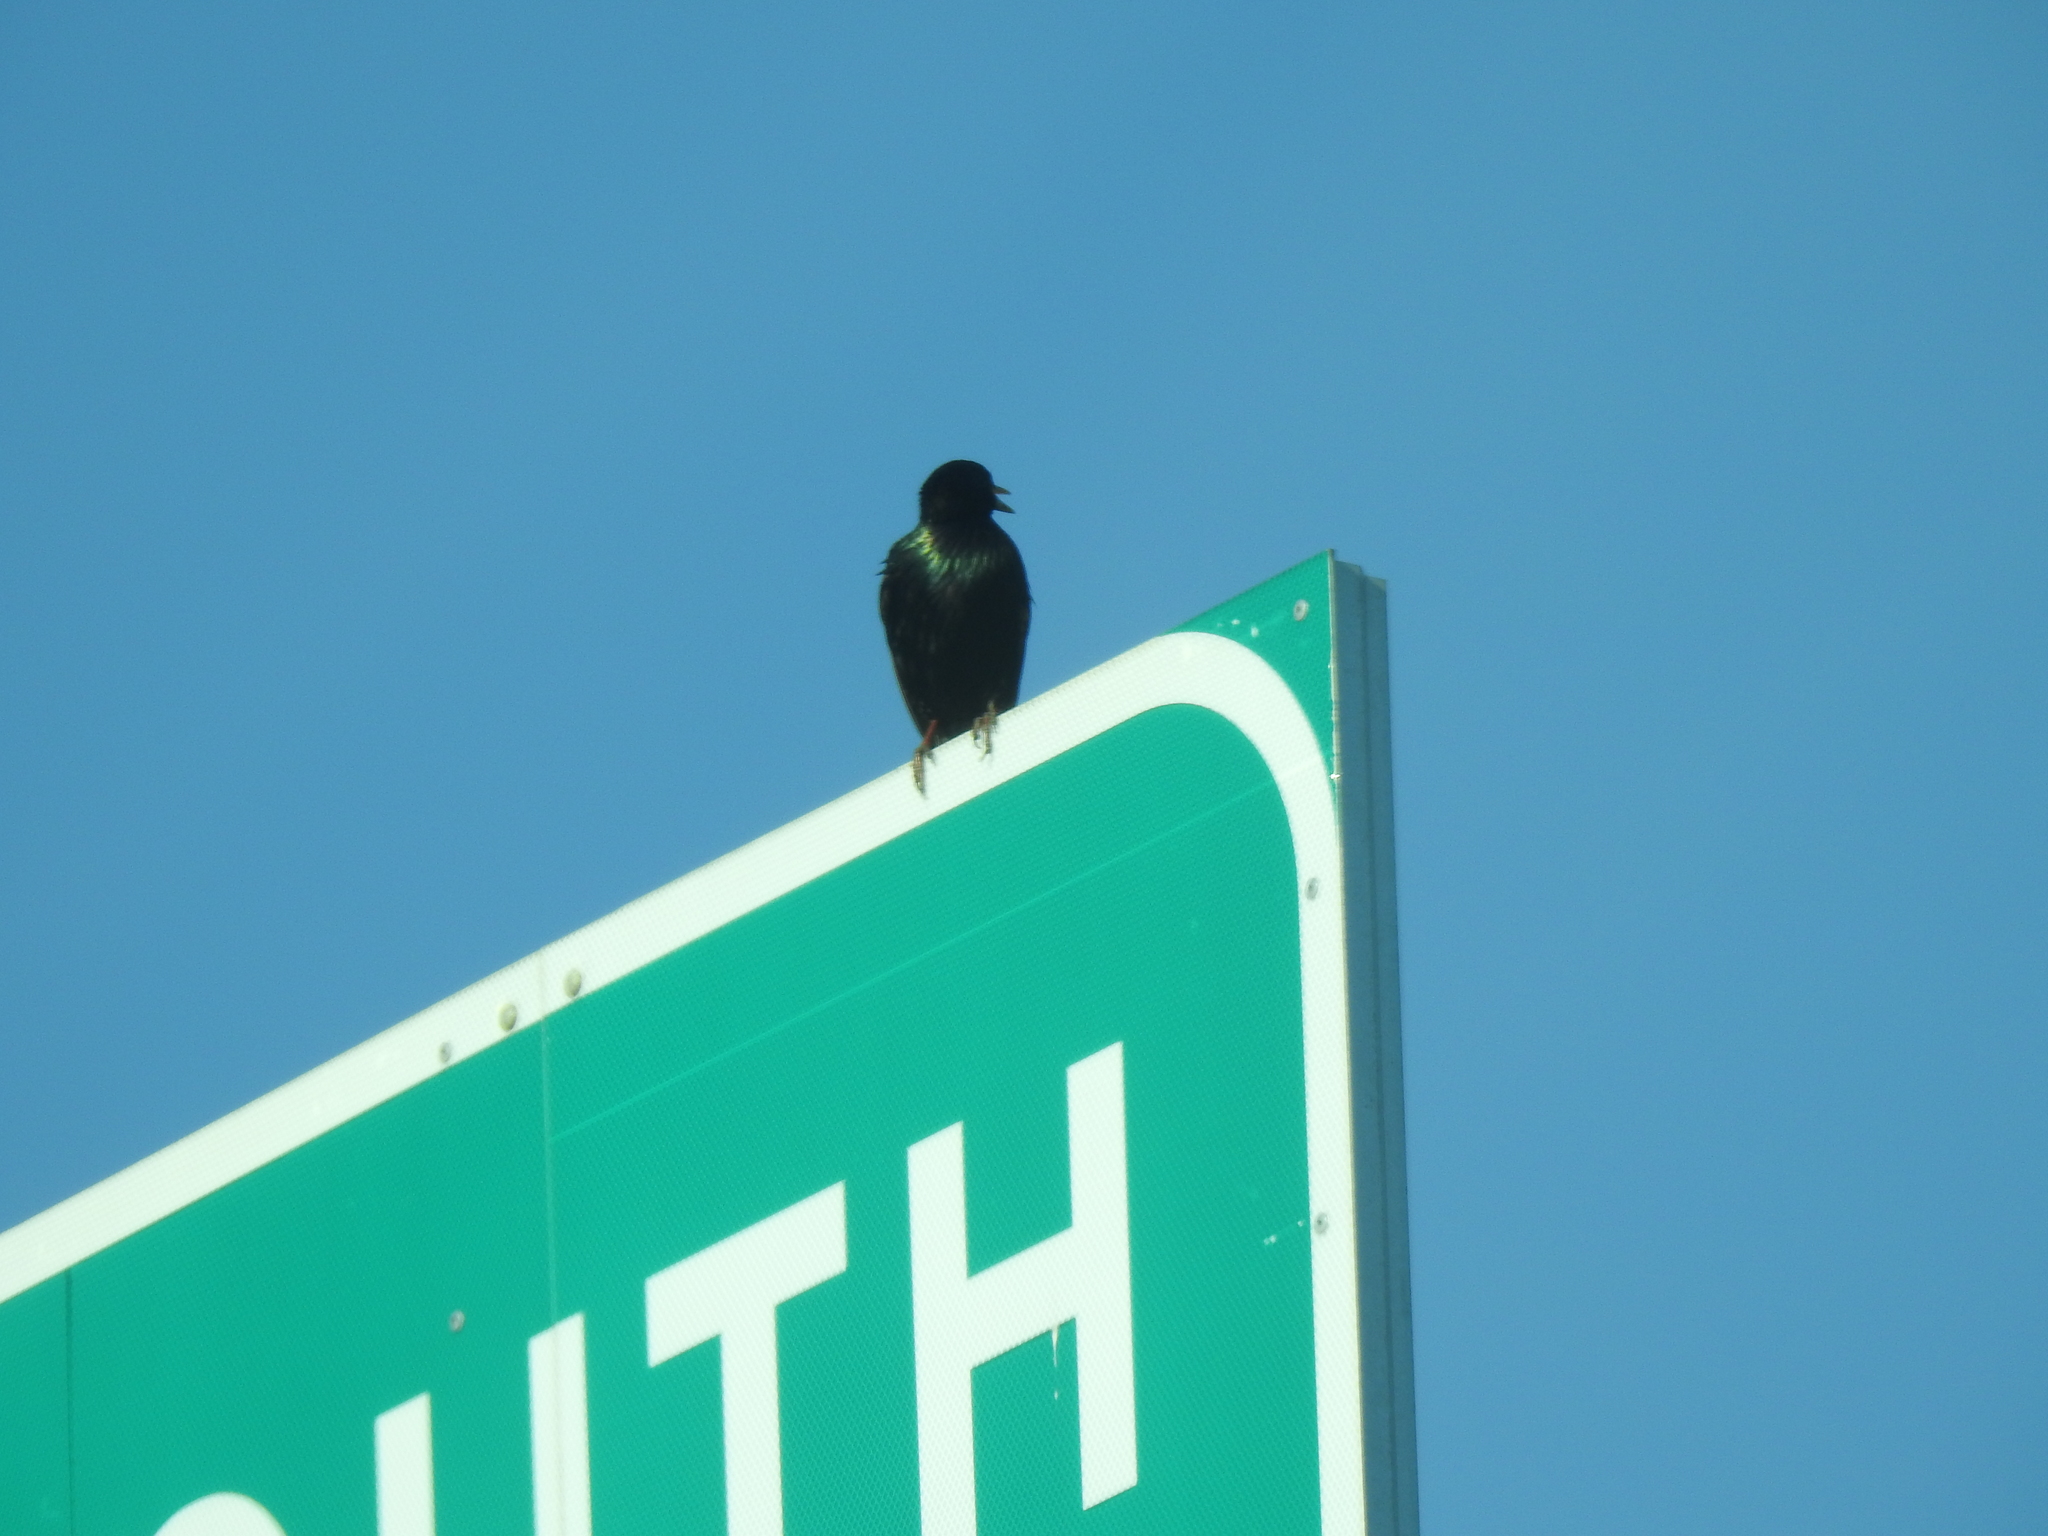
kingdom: Animalia
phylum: Chordata
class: Aves
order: Passeriformes
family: Sturnidae
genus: Sturnus
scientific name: Sturnus vulgaris
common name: Common starling
